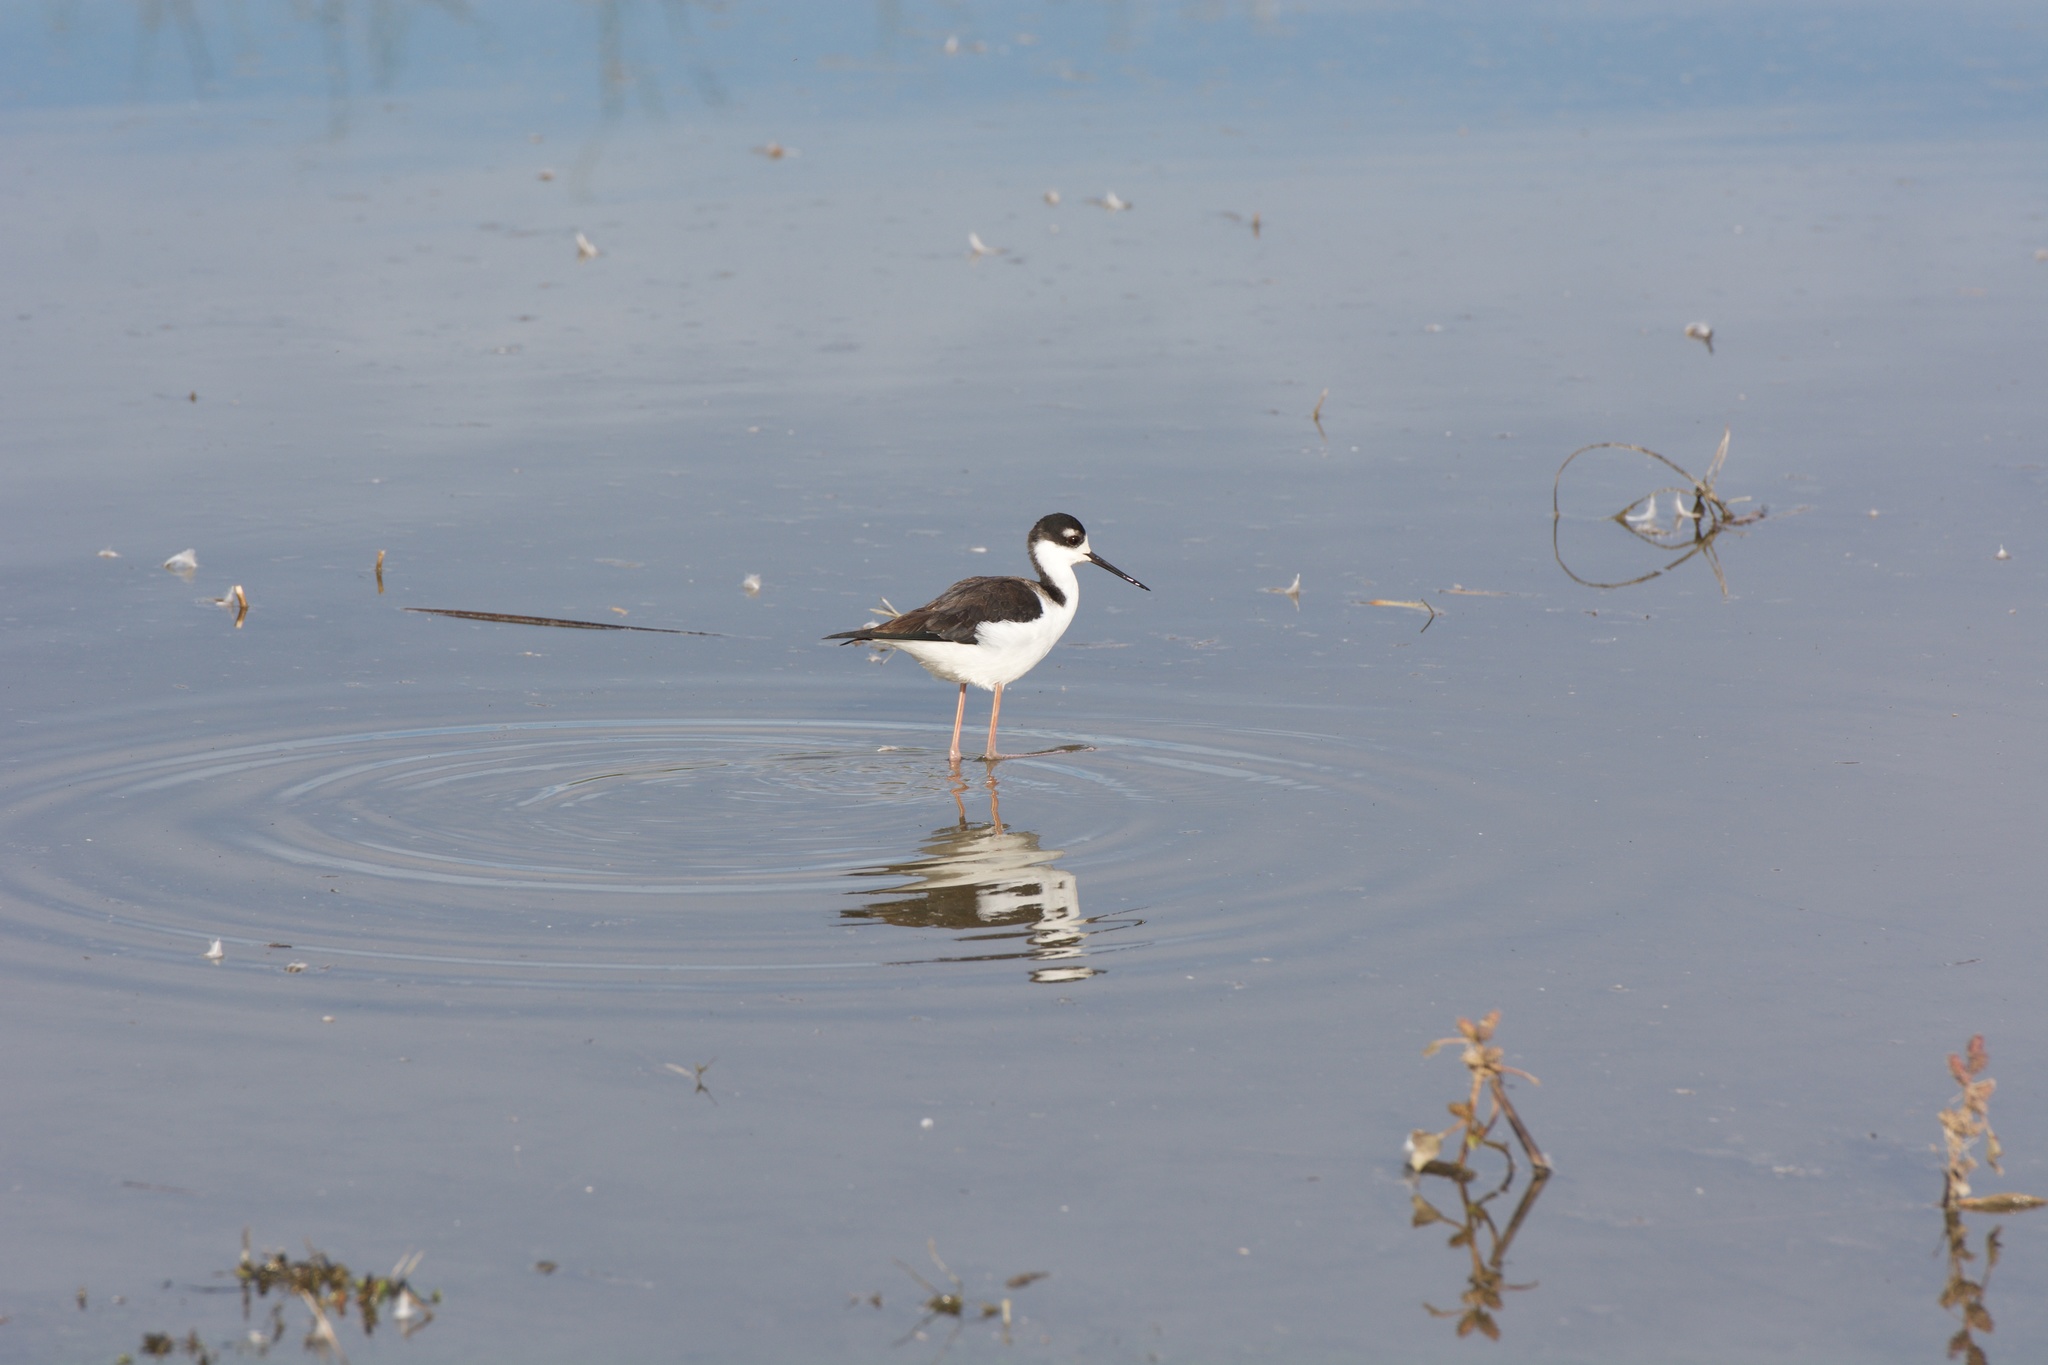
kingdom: Animalia
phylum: Chordata
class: Aves
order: Charadriiformes
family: Recurvirostridae
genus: Himantopus
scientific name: Himantopus mexicanus
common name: Black-necked stilt
